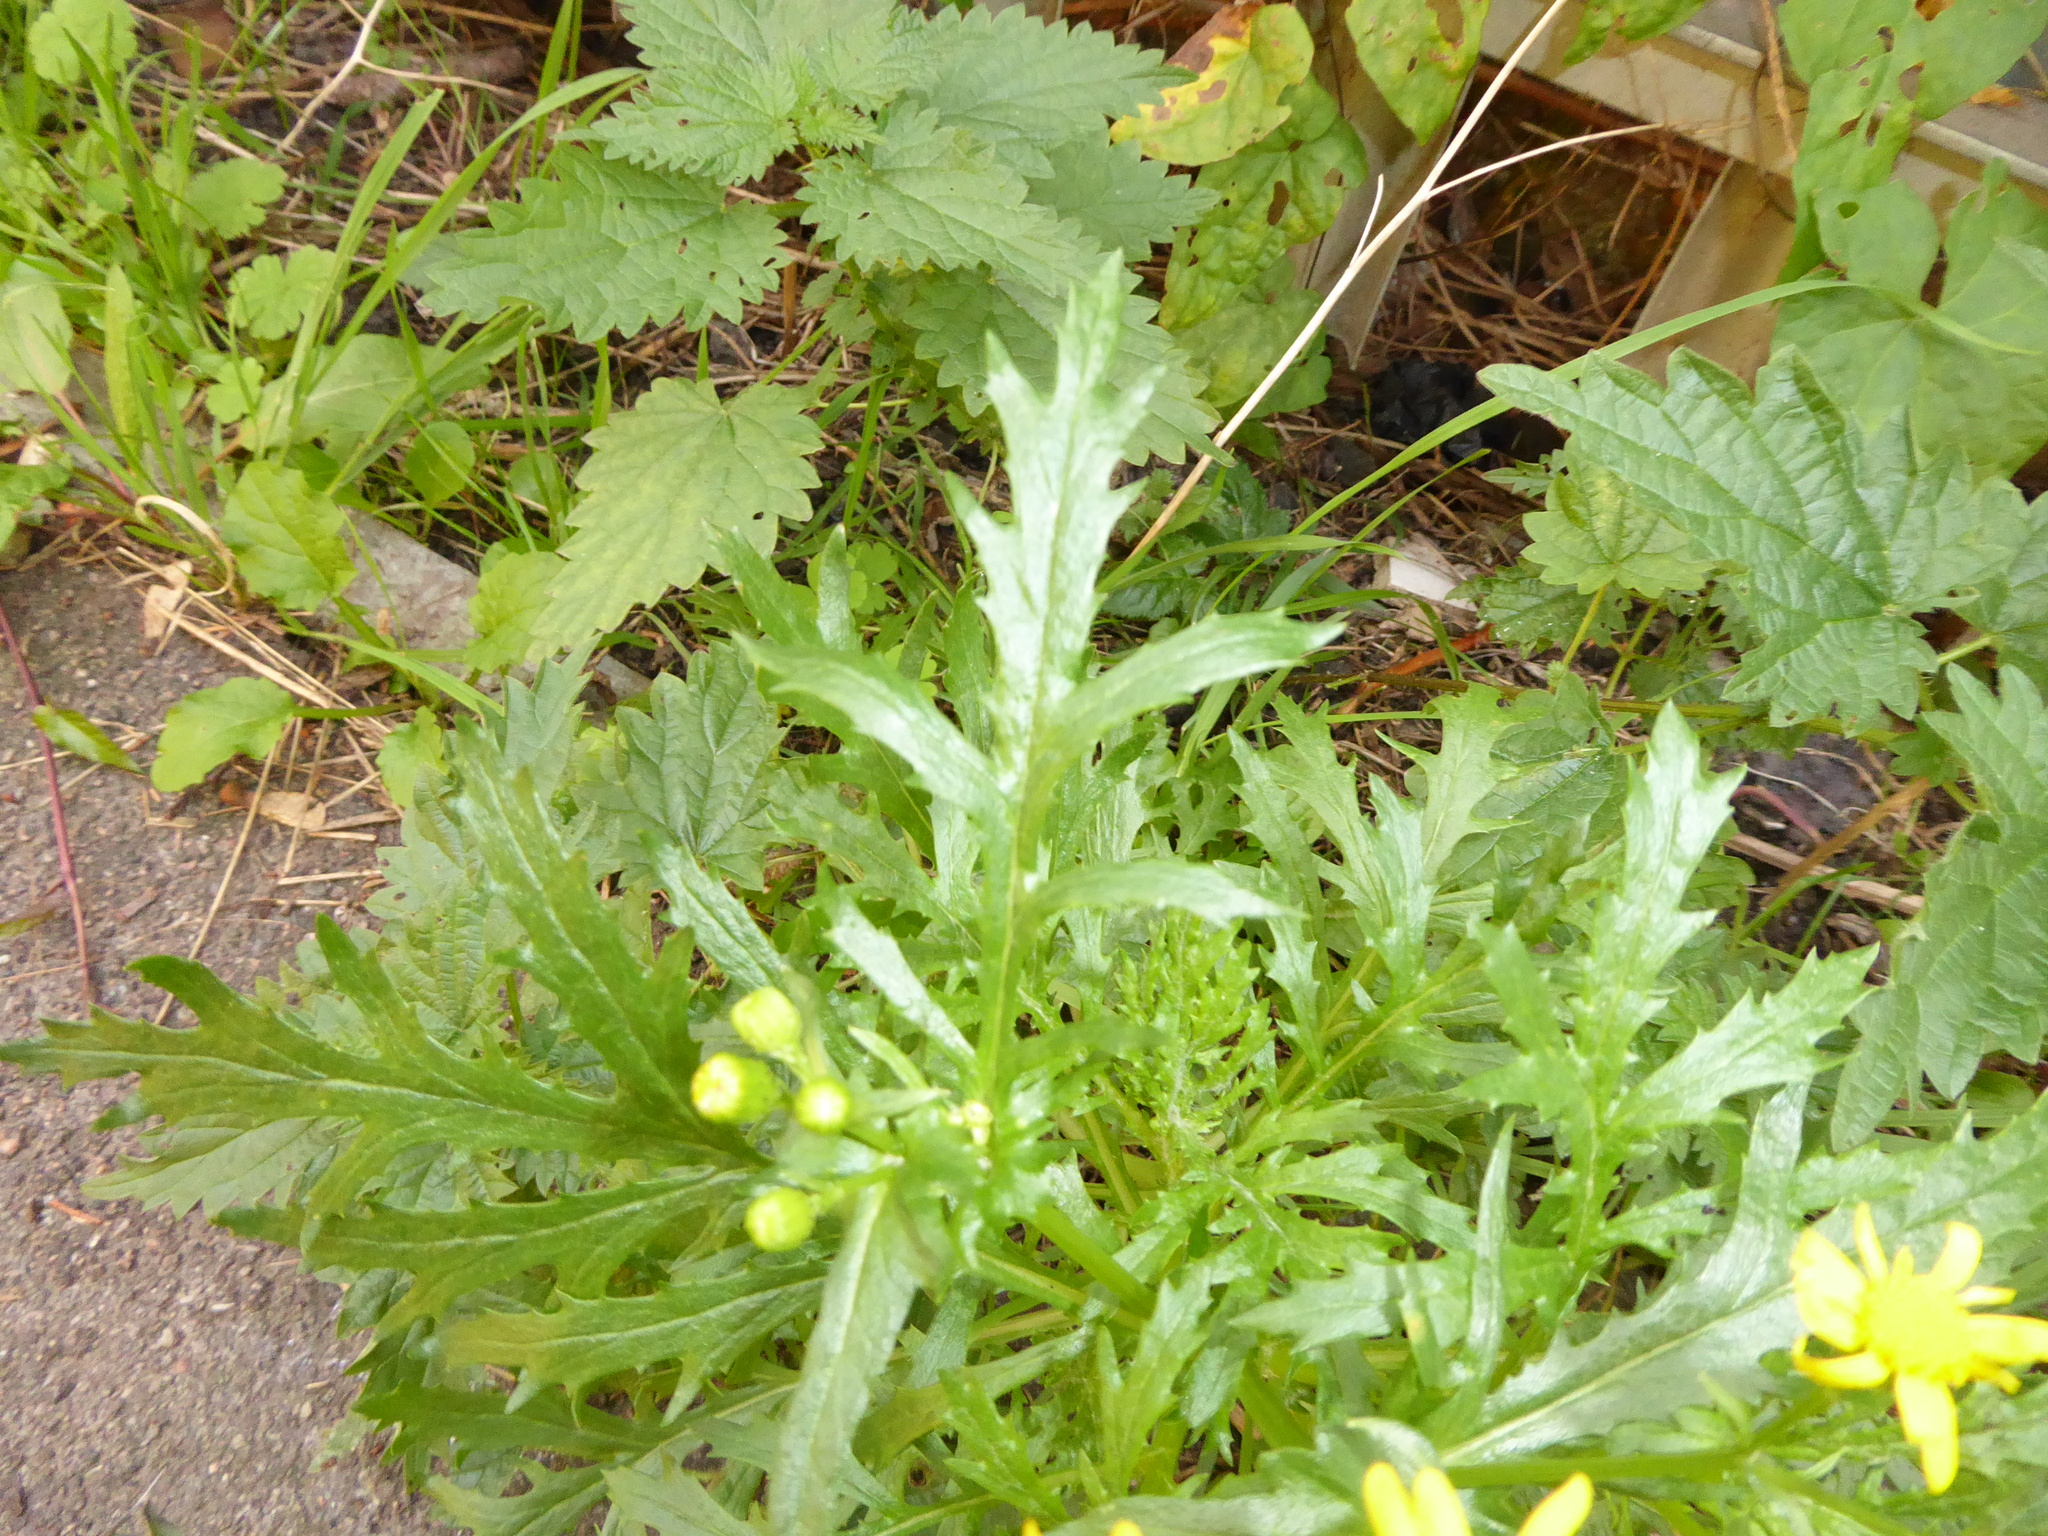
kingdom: Plantae
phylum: Tracheophyta
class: Magnoliopsida
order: Asterales
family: Asteraceae
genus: Senecio
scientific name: Senecio squalidus
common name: Oxford ragwort
